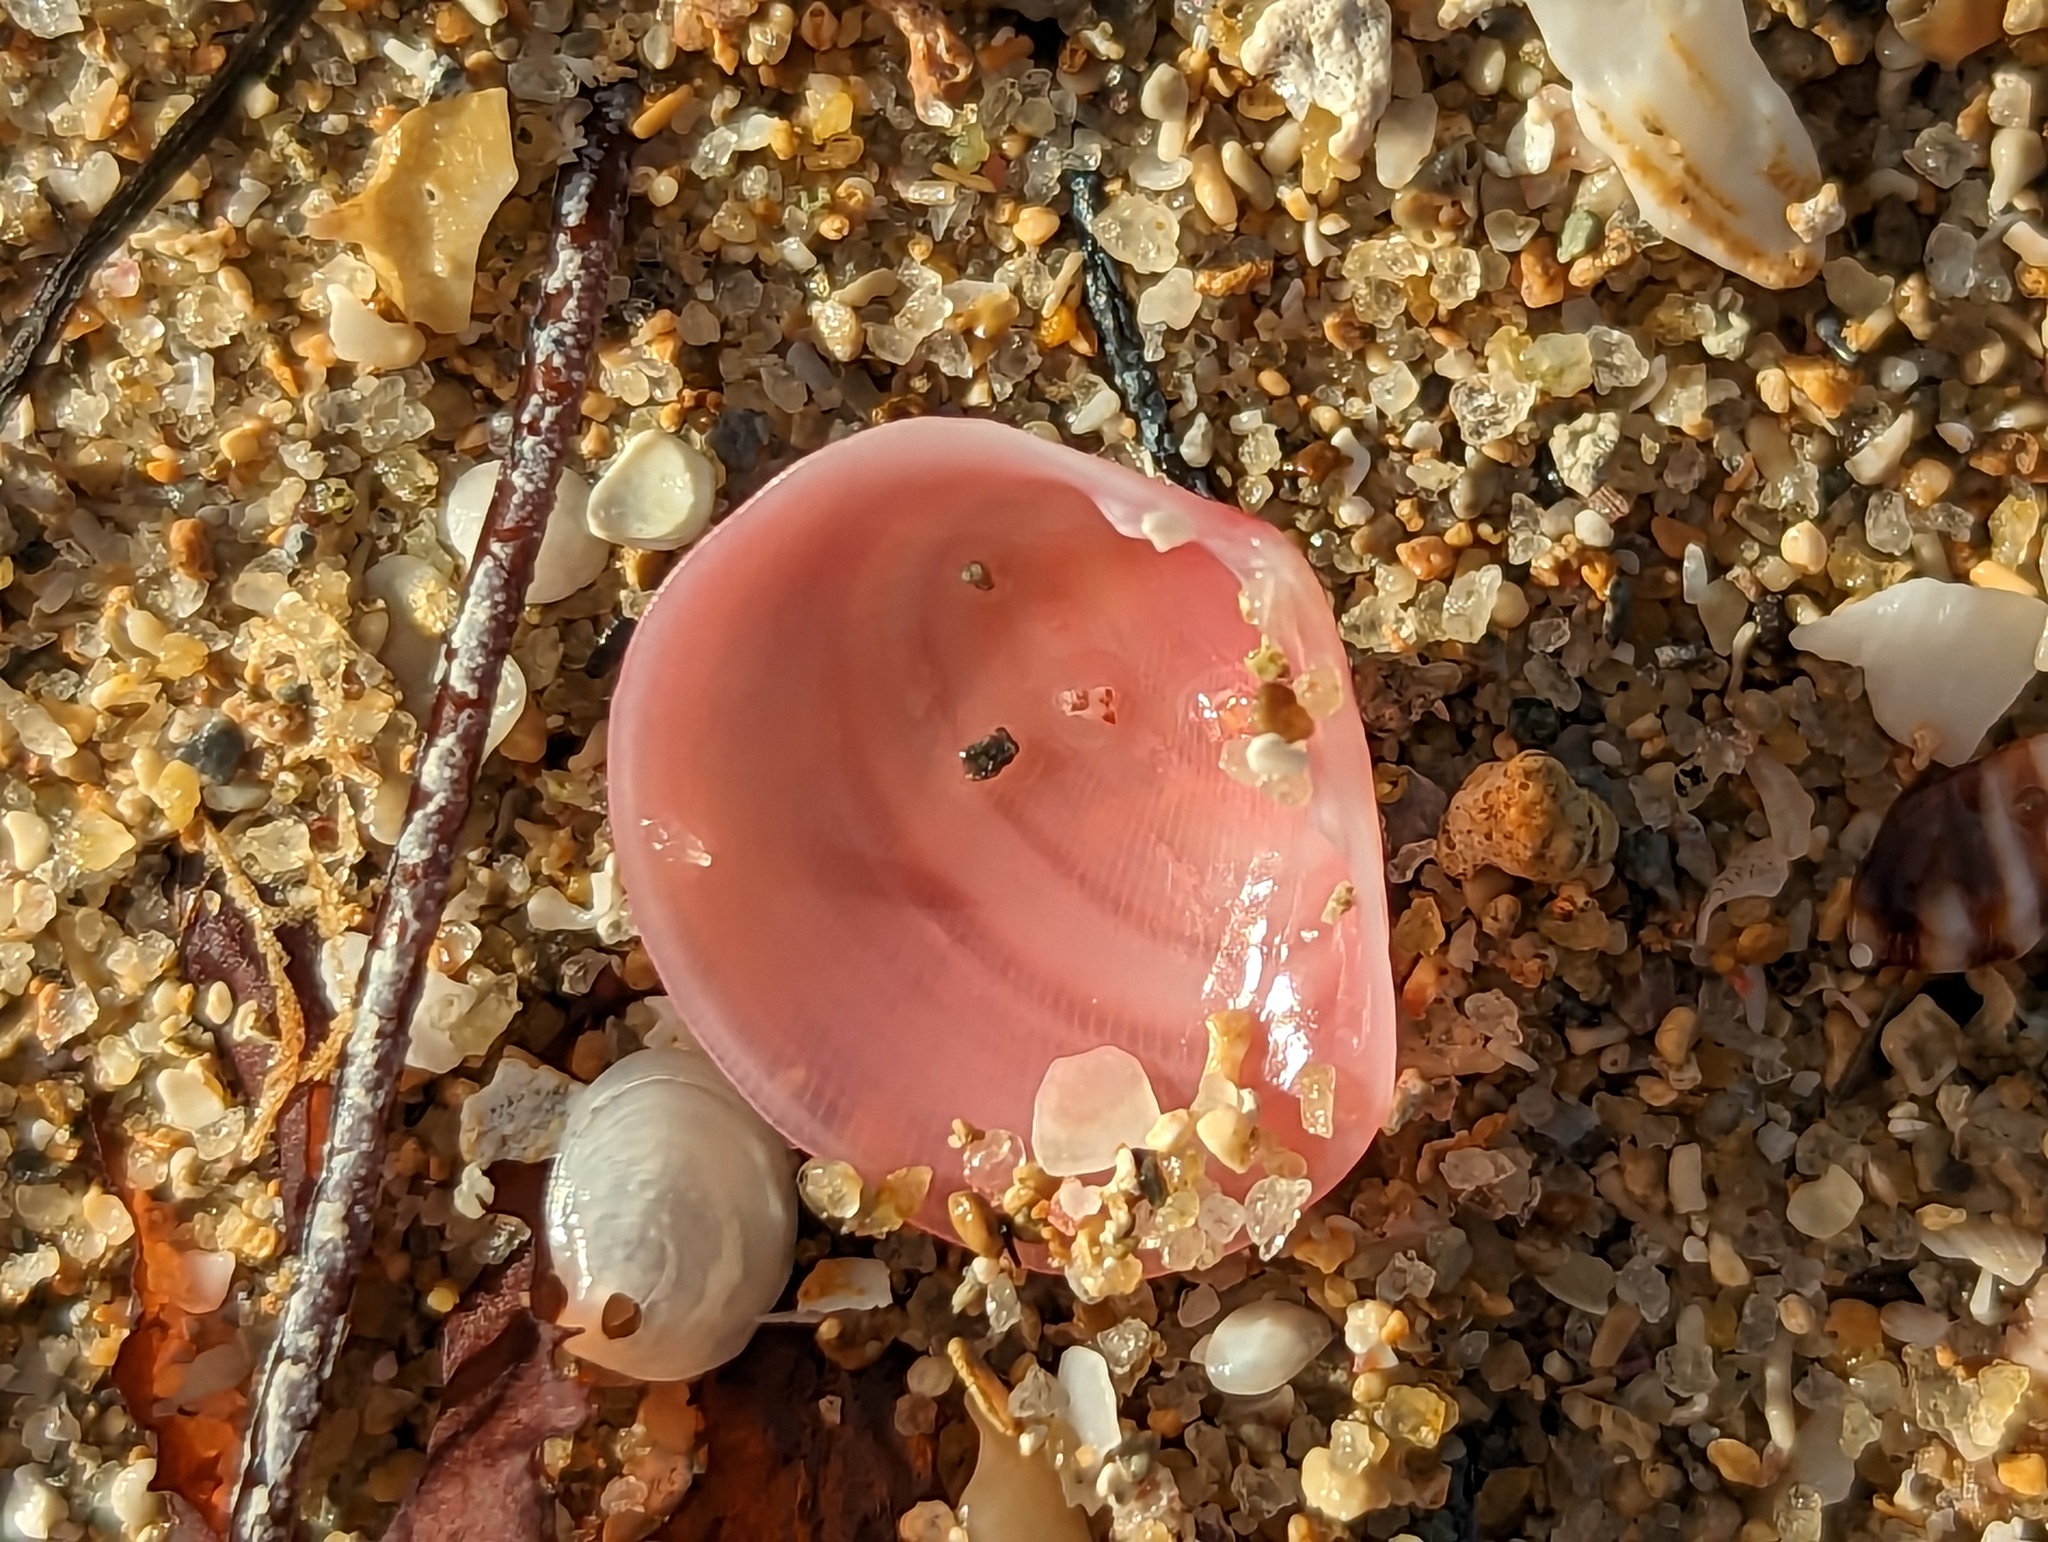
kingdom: Animalia
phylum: Mollusca
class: Bivalvia
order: Cardiida
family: Tellinidae
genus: Strigilla
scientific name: Strigilla carnaria
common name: Large strigilla
